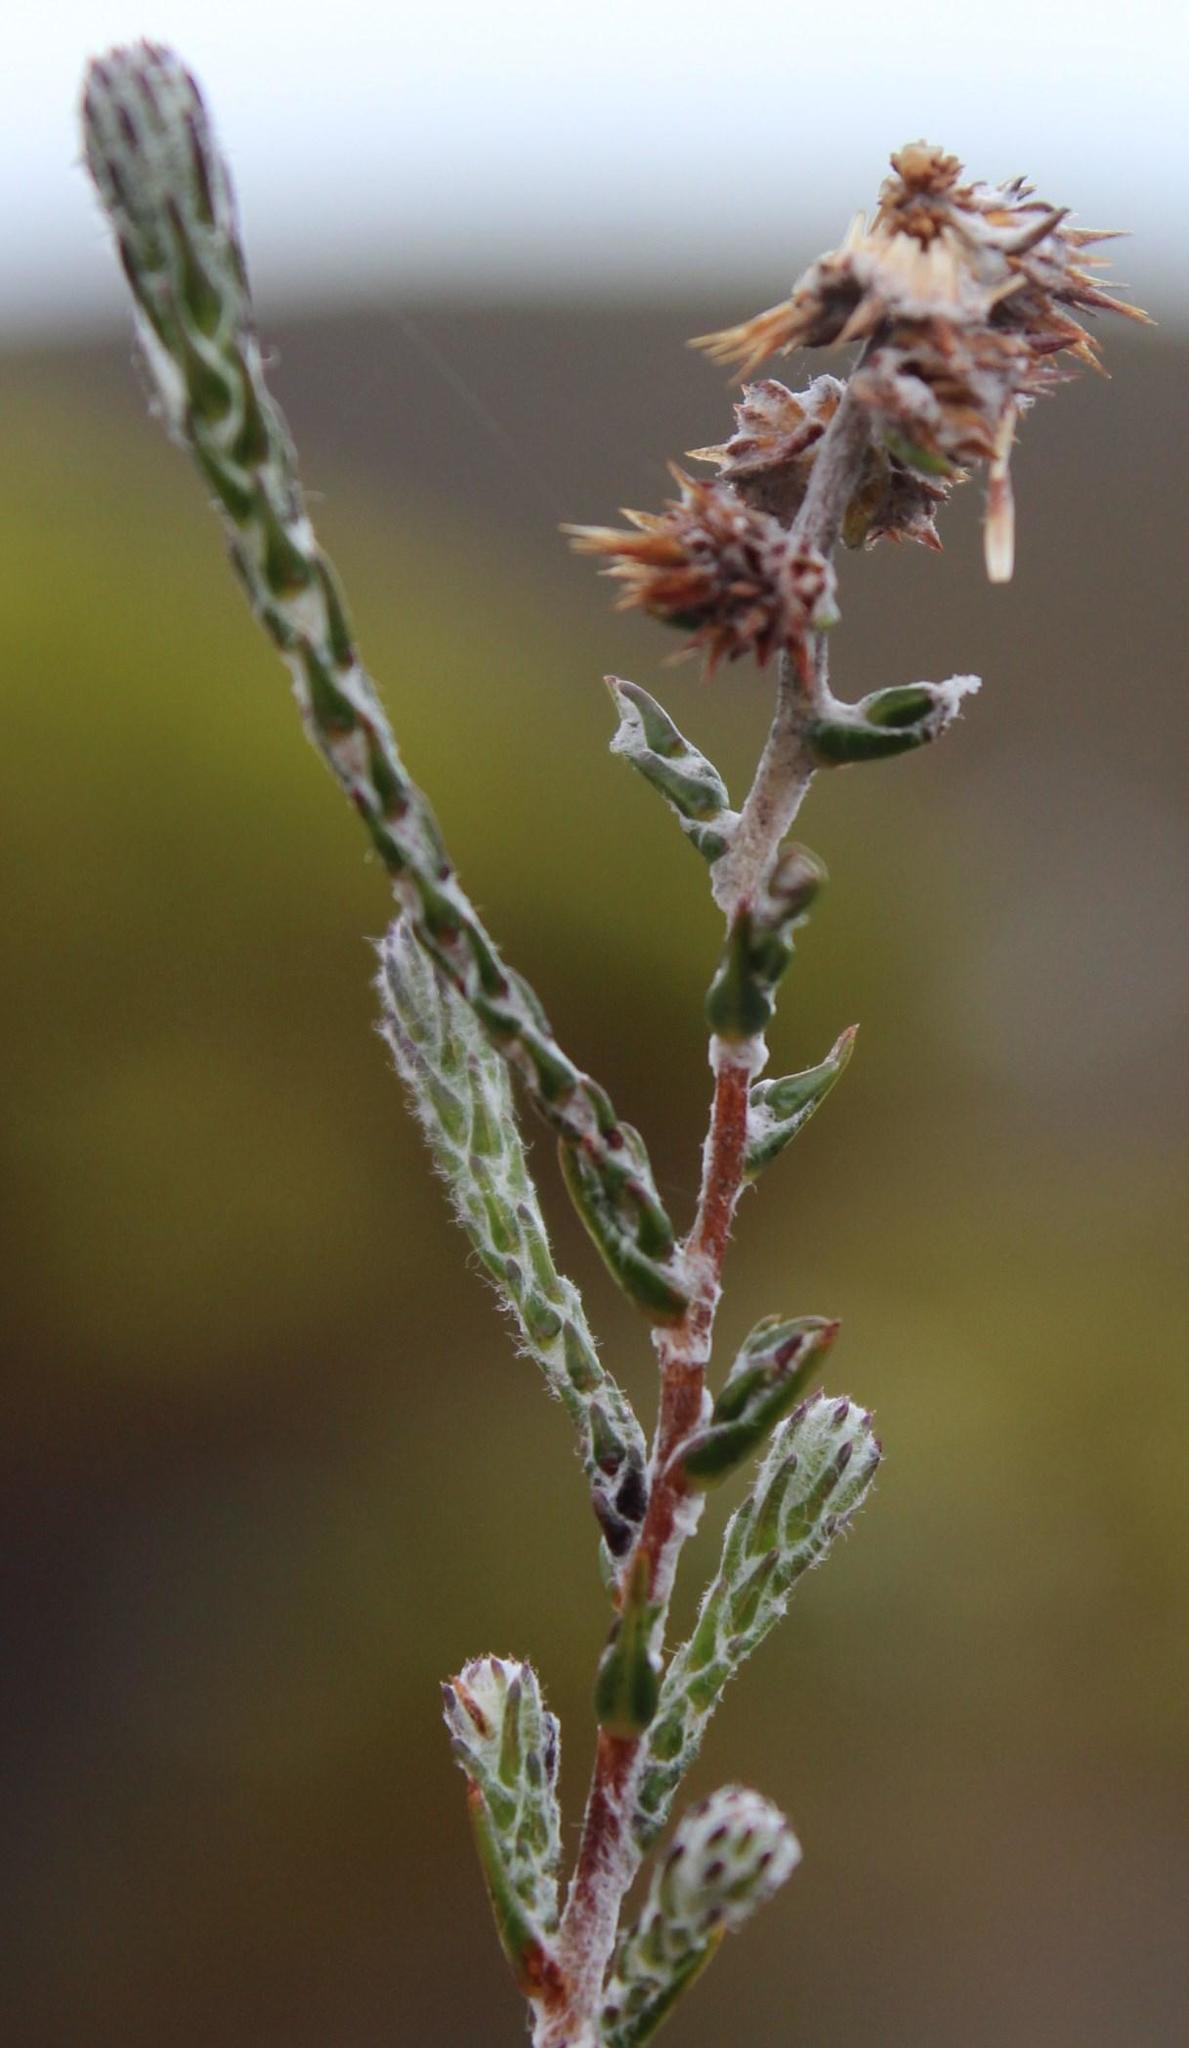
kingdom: Plantae
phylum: Tracheophyta
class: Magnoliopsida
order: Asterales
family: Asteraceae
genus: Seriphium
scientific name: Seriphium plumosum
